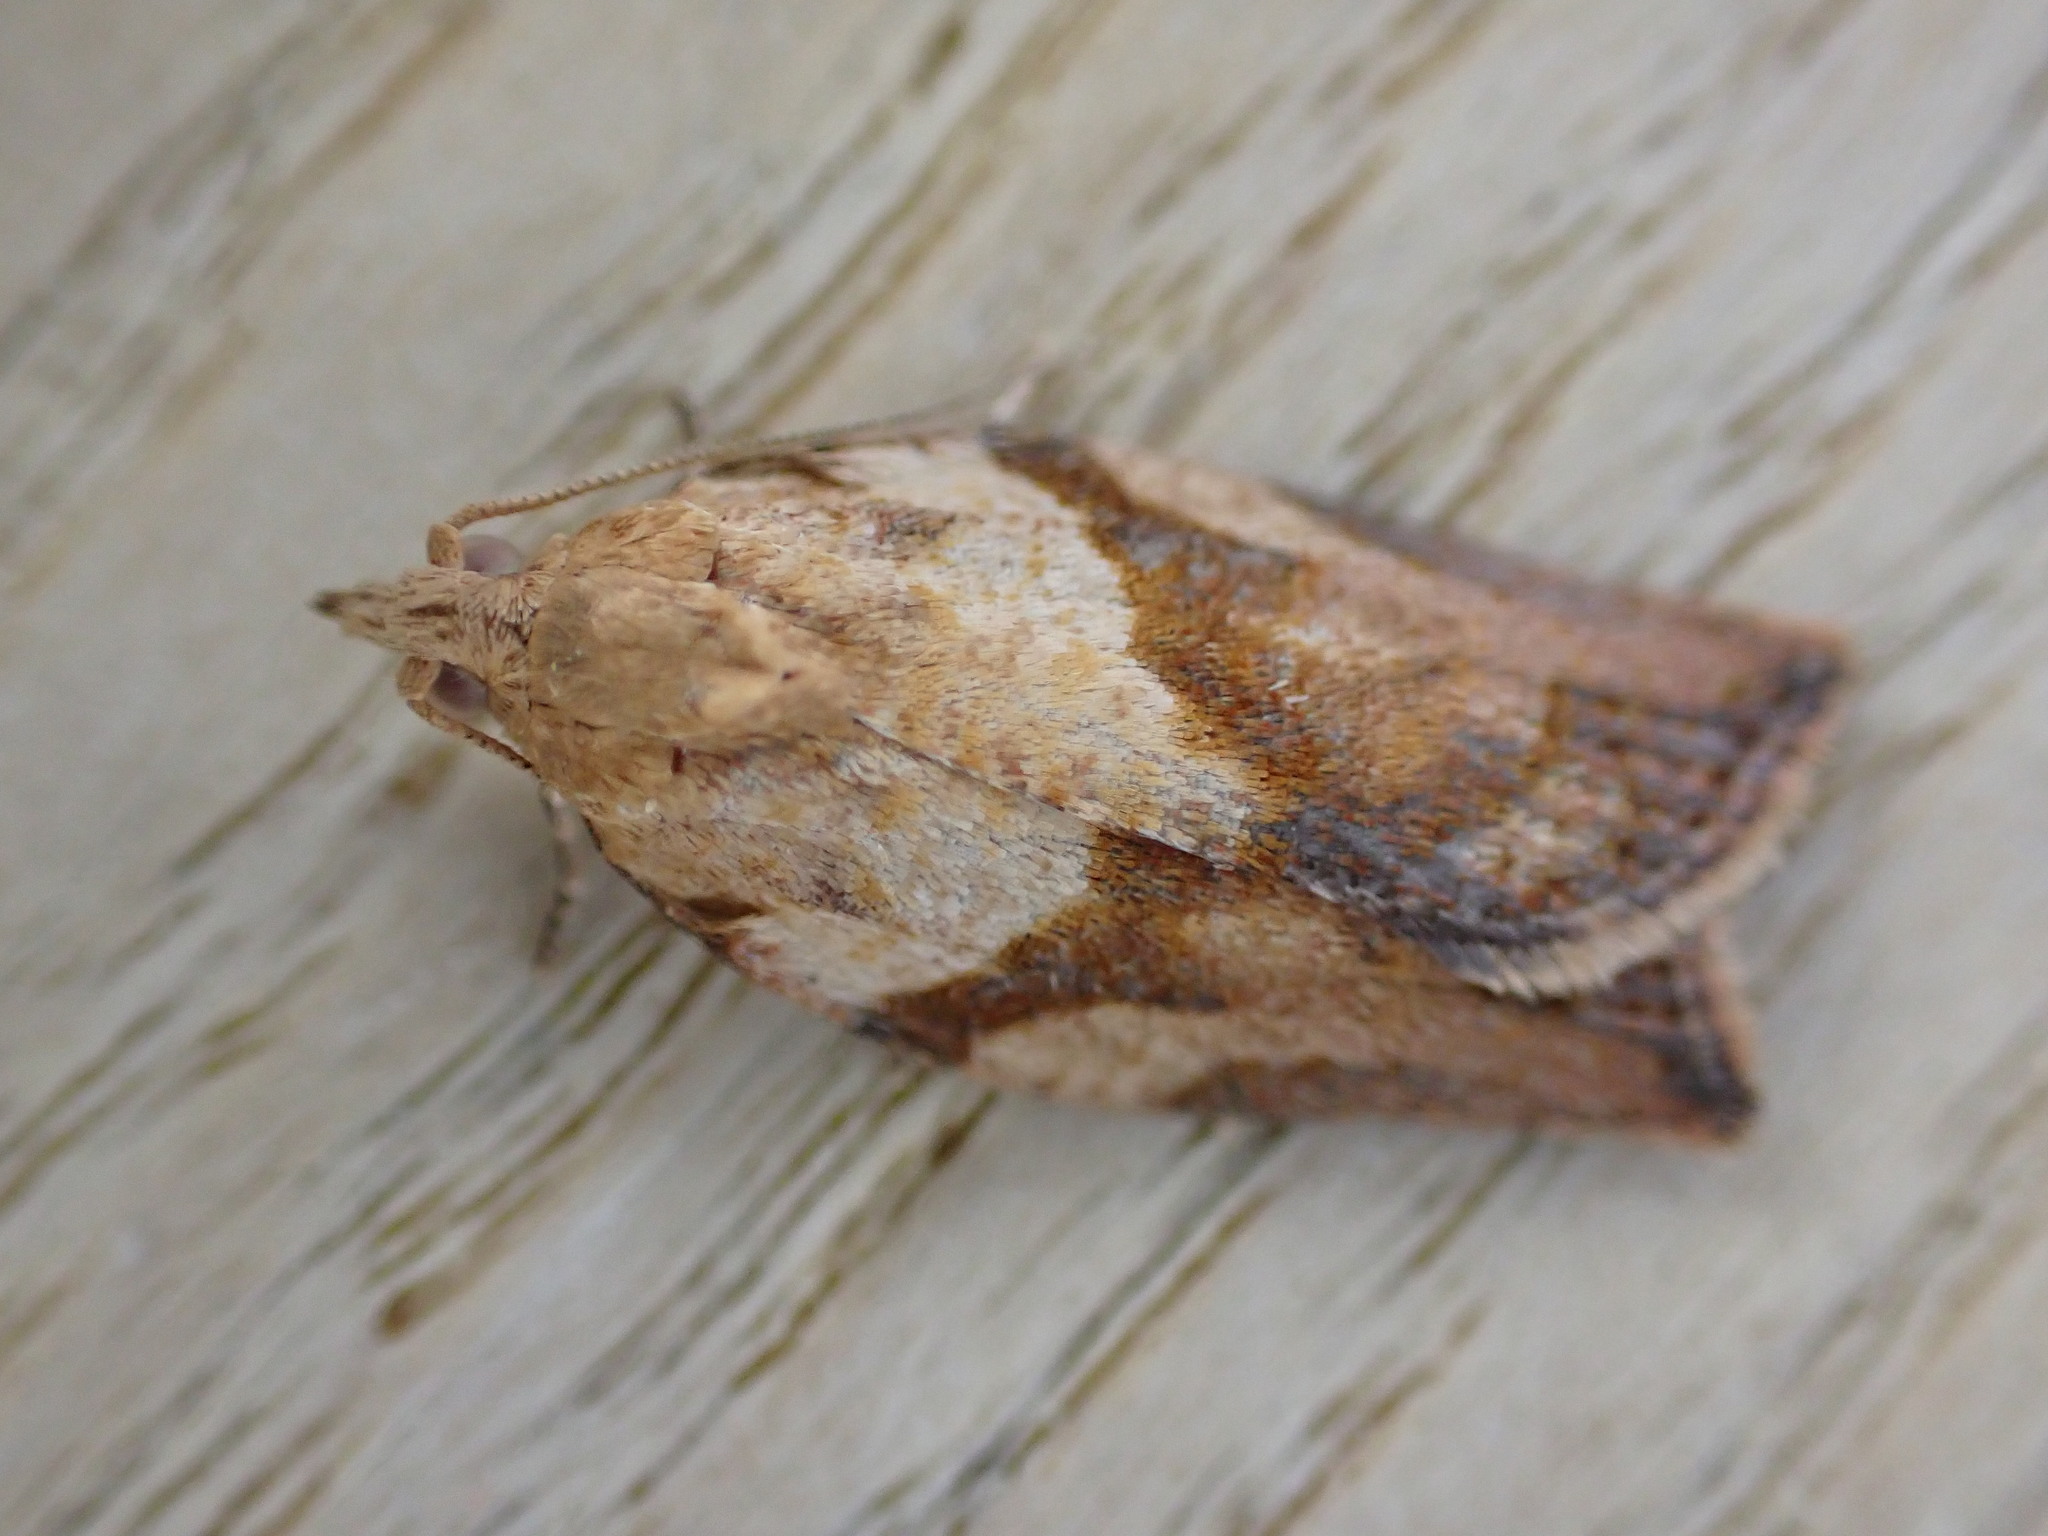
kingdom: Animalia
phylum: Arthropoda
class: Insecta
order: Lepidoptera
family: Tortricidae
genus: Epiphyas
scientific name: Epiphyas postvittana
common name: Light brown apple moth
